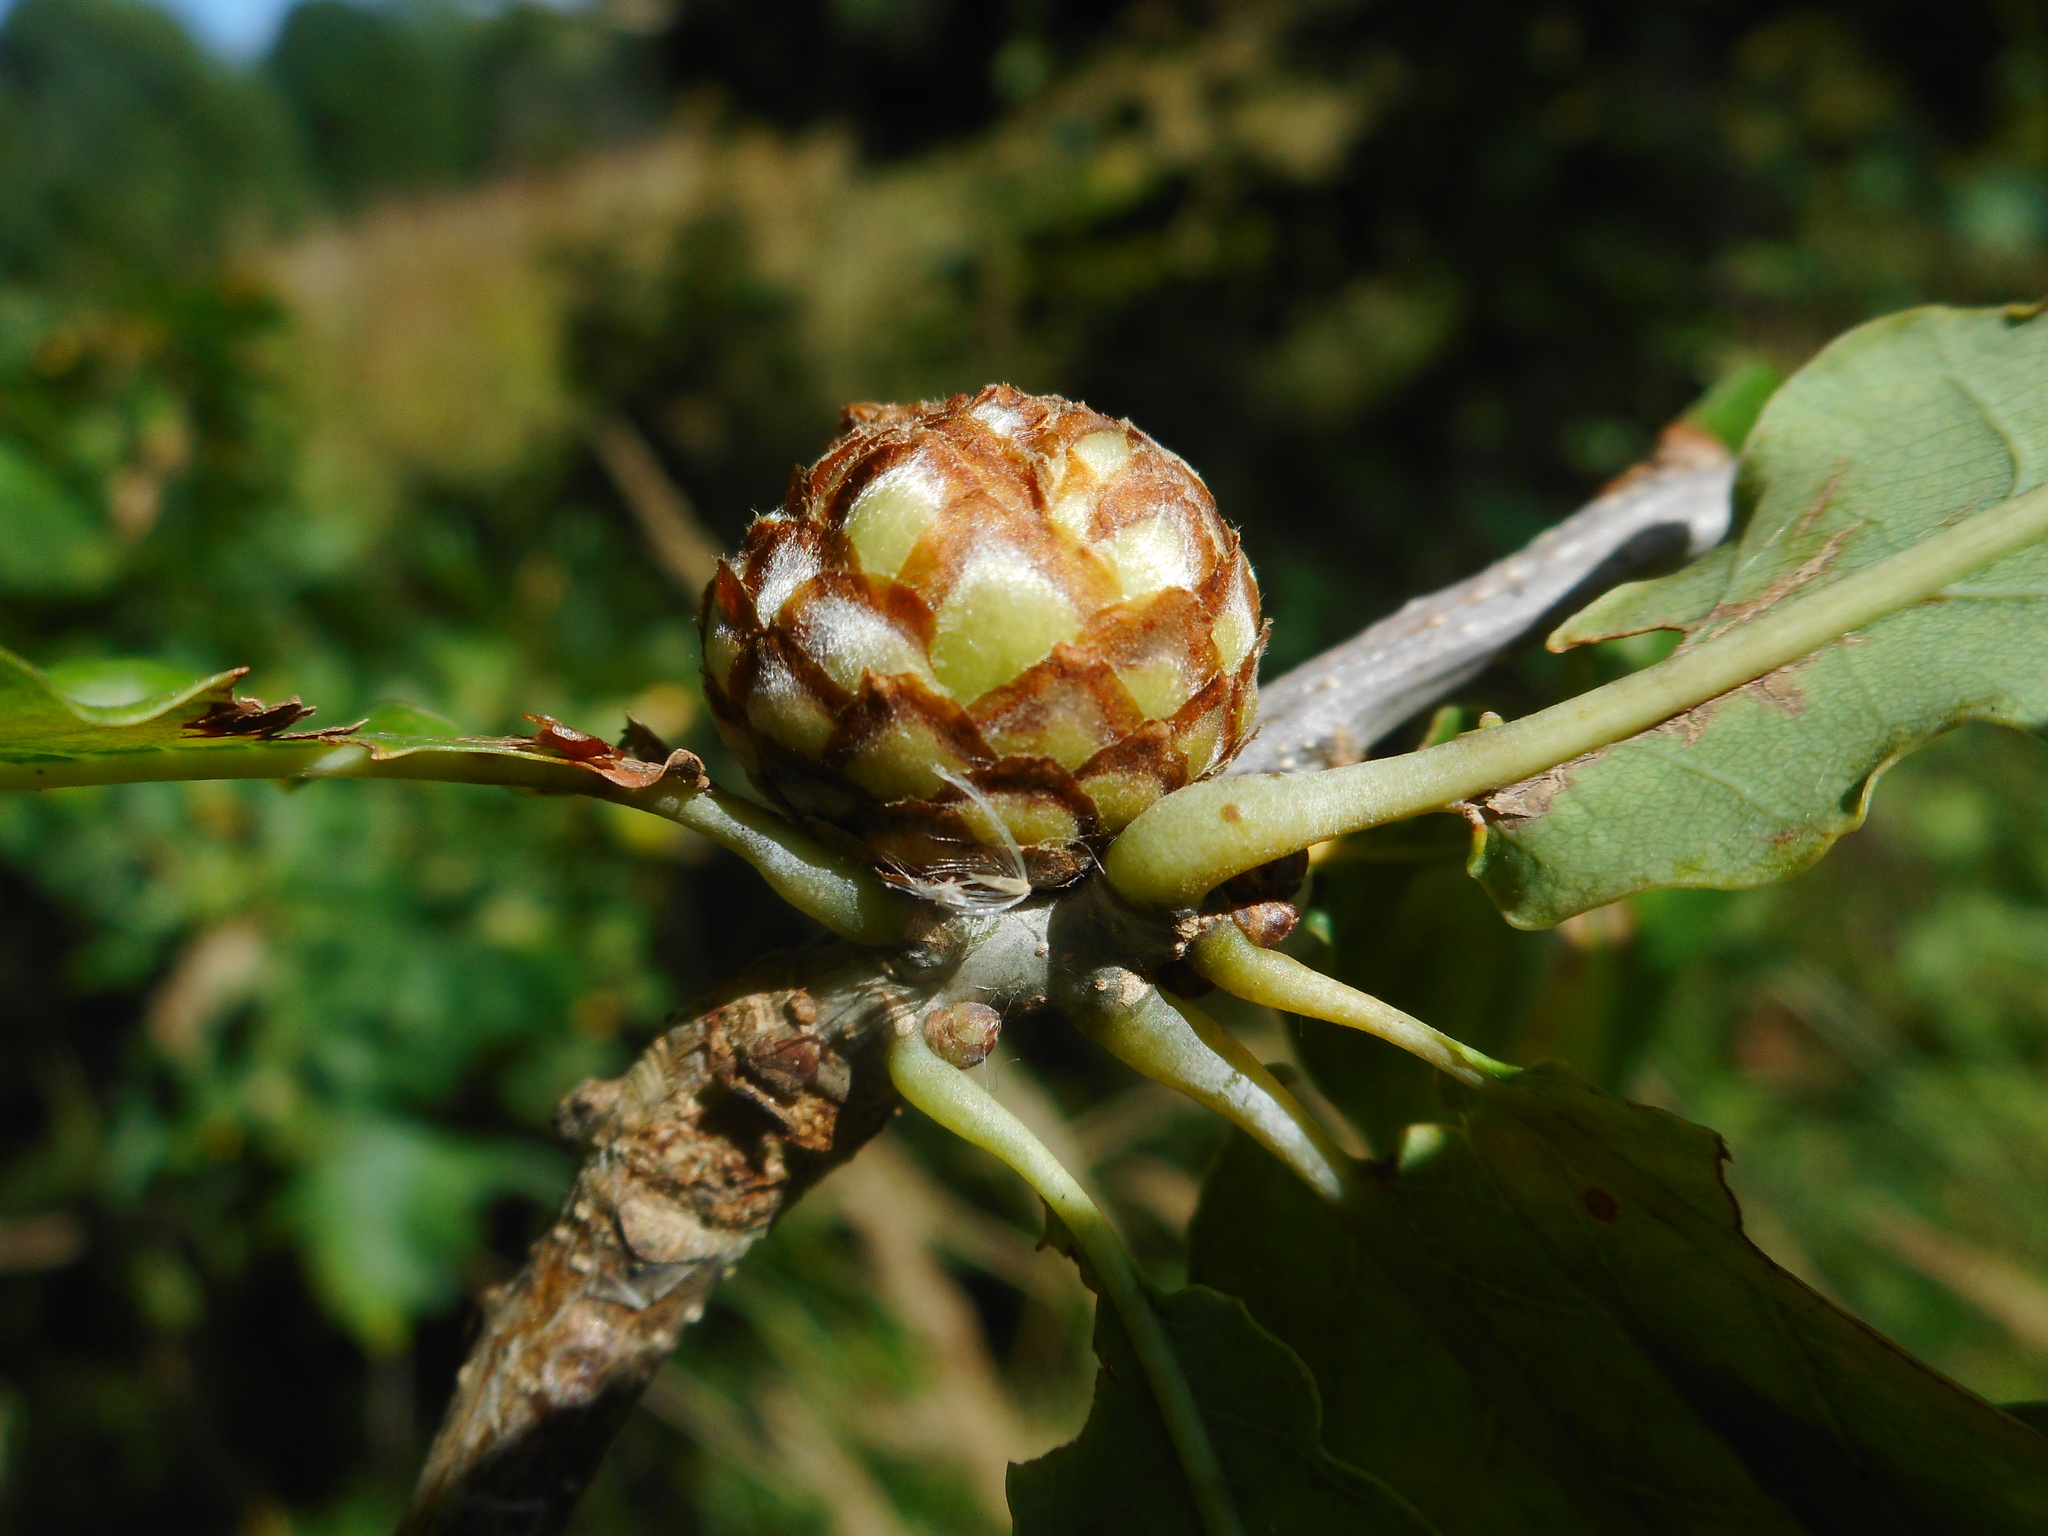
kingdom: Animalia
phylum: Arthropoda
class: Insecta
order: Hymenoptera
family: Cynipidae
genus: Andricus
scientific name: Andricus foecundatrix
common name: Artichoke gall
